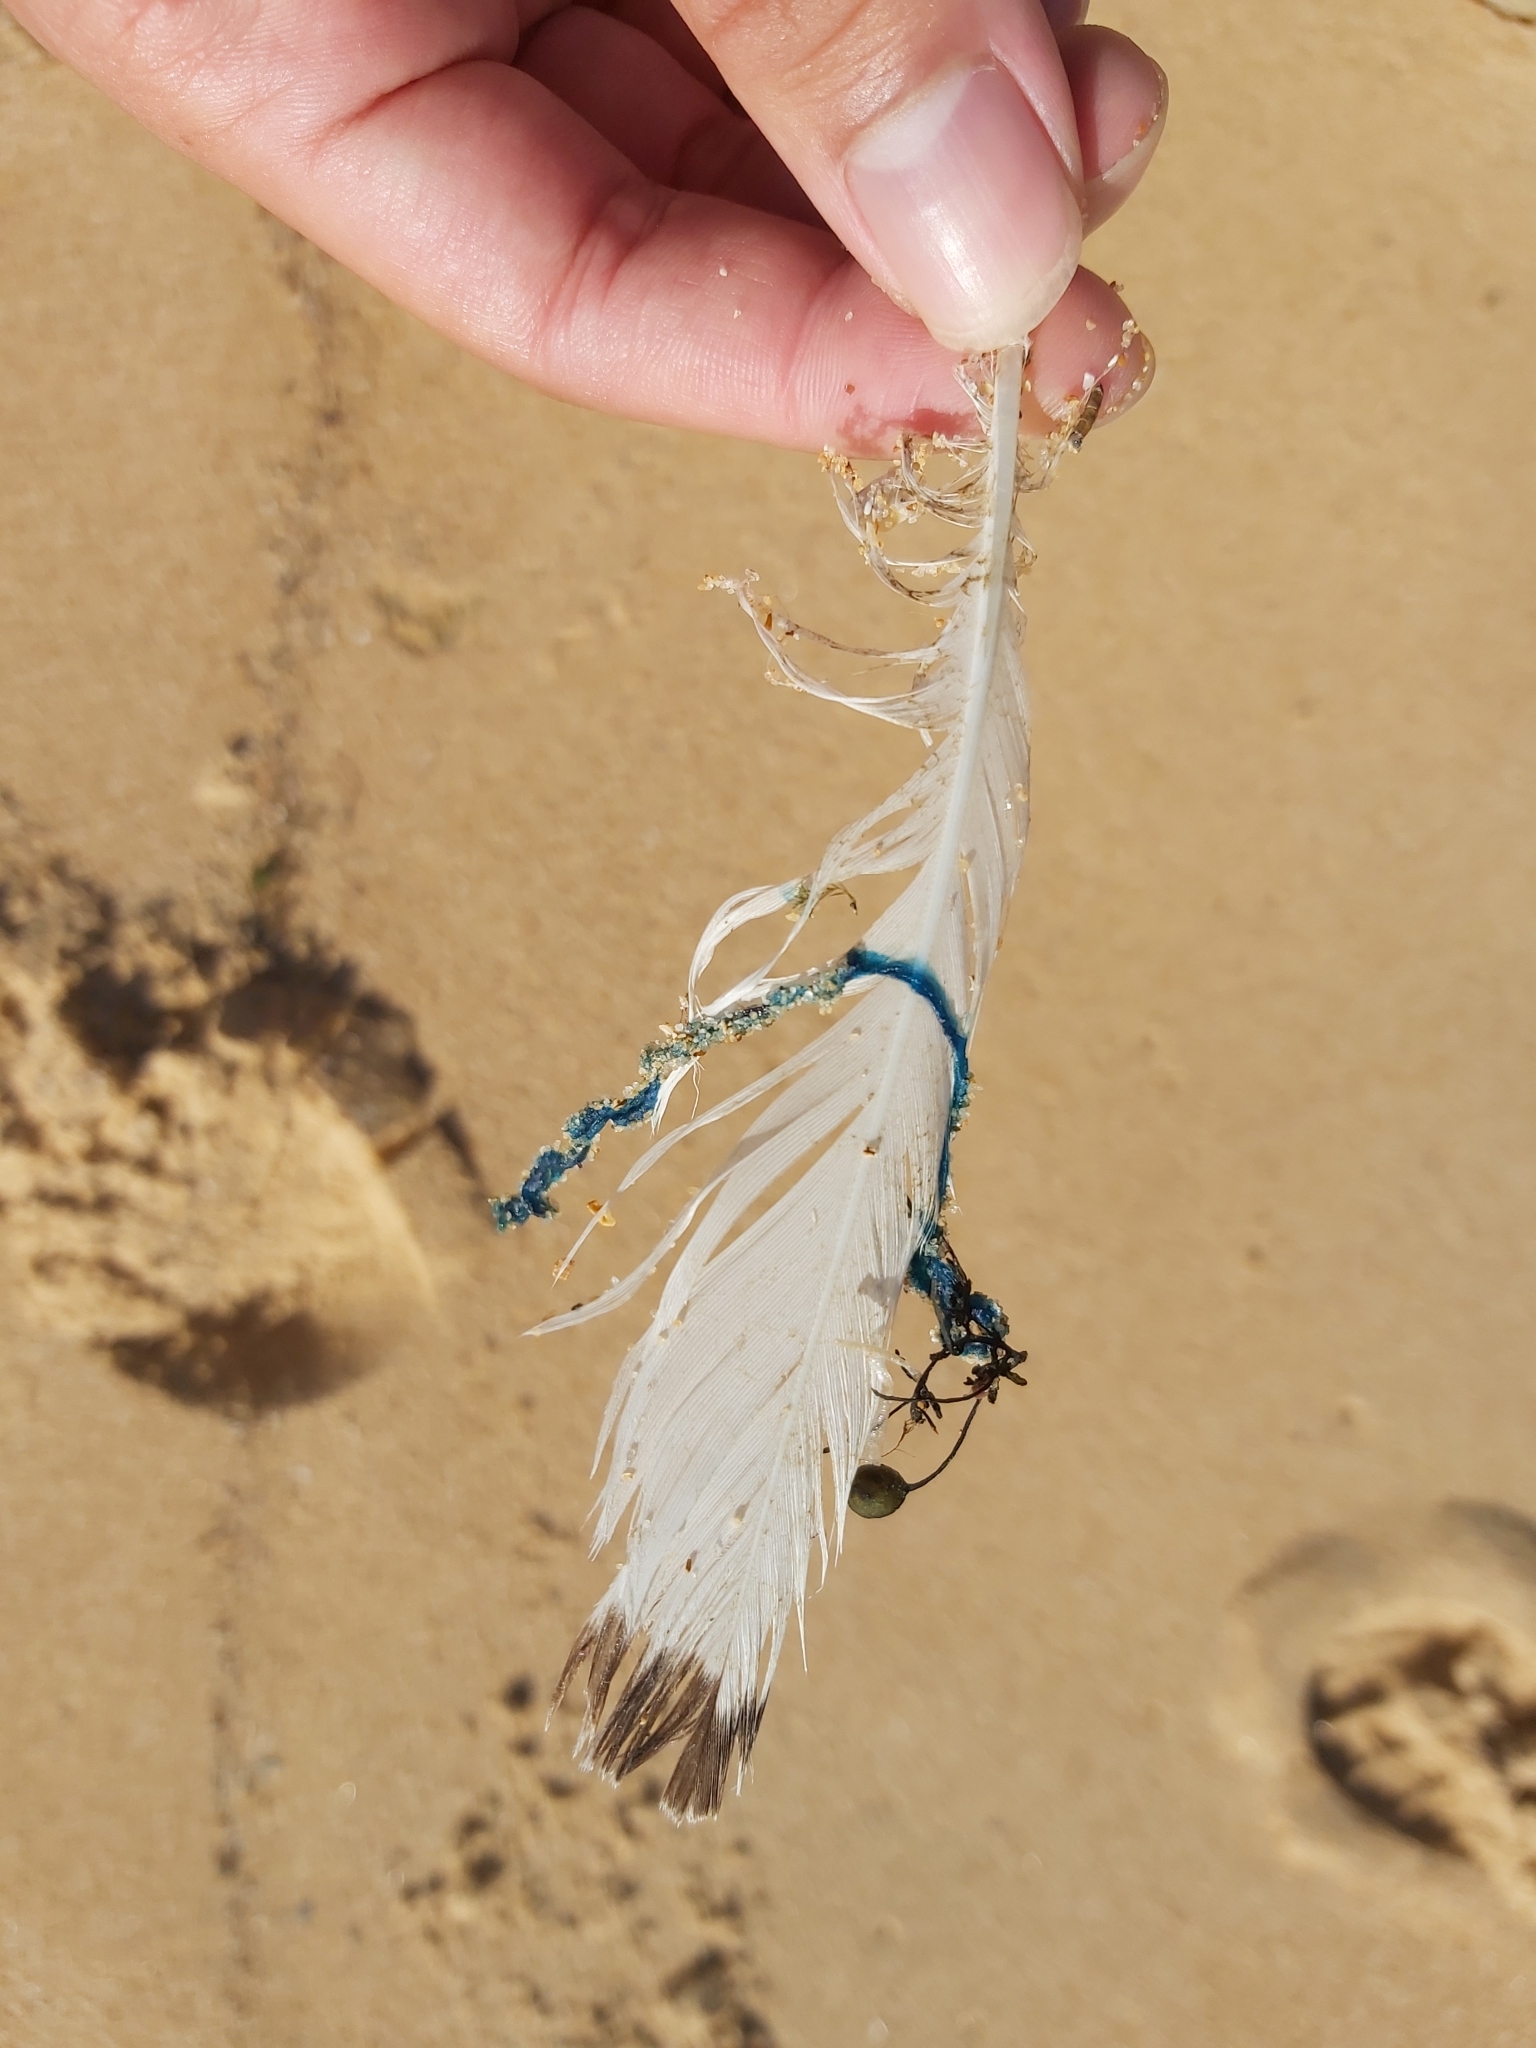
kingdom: Animalia
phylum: Cnidaria
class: Hydrozoa
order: Siphonophorae
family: Physaliidae
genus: Physalia
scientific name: Physalia physalis
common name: Portuguese man-of-war
